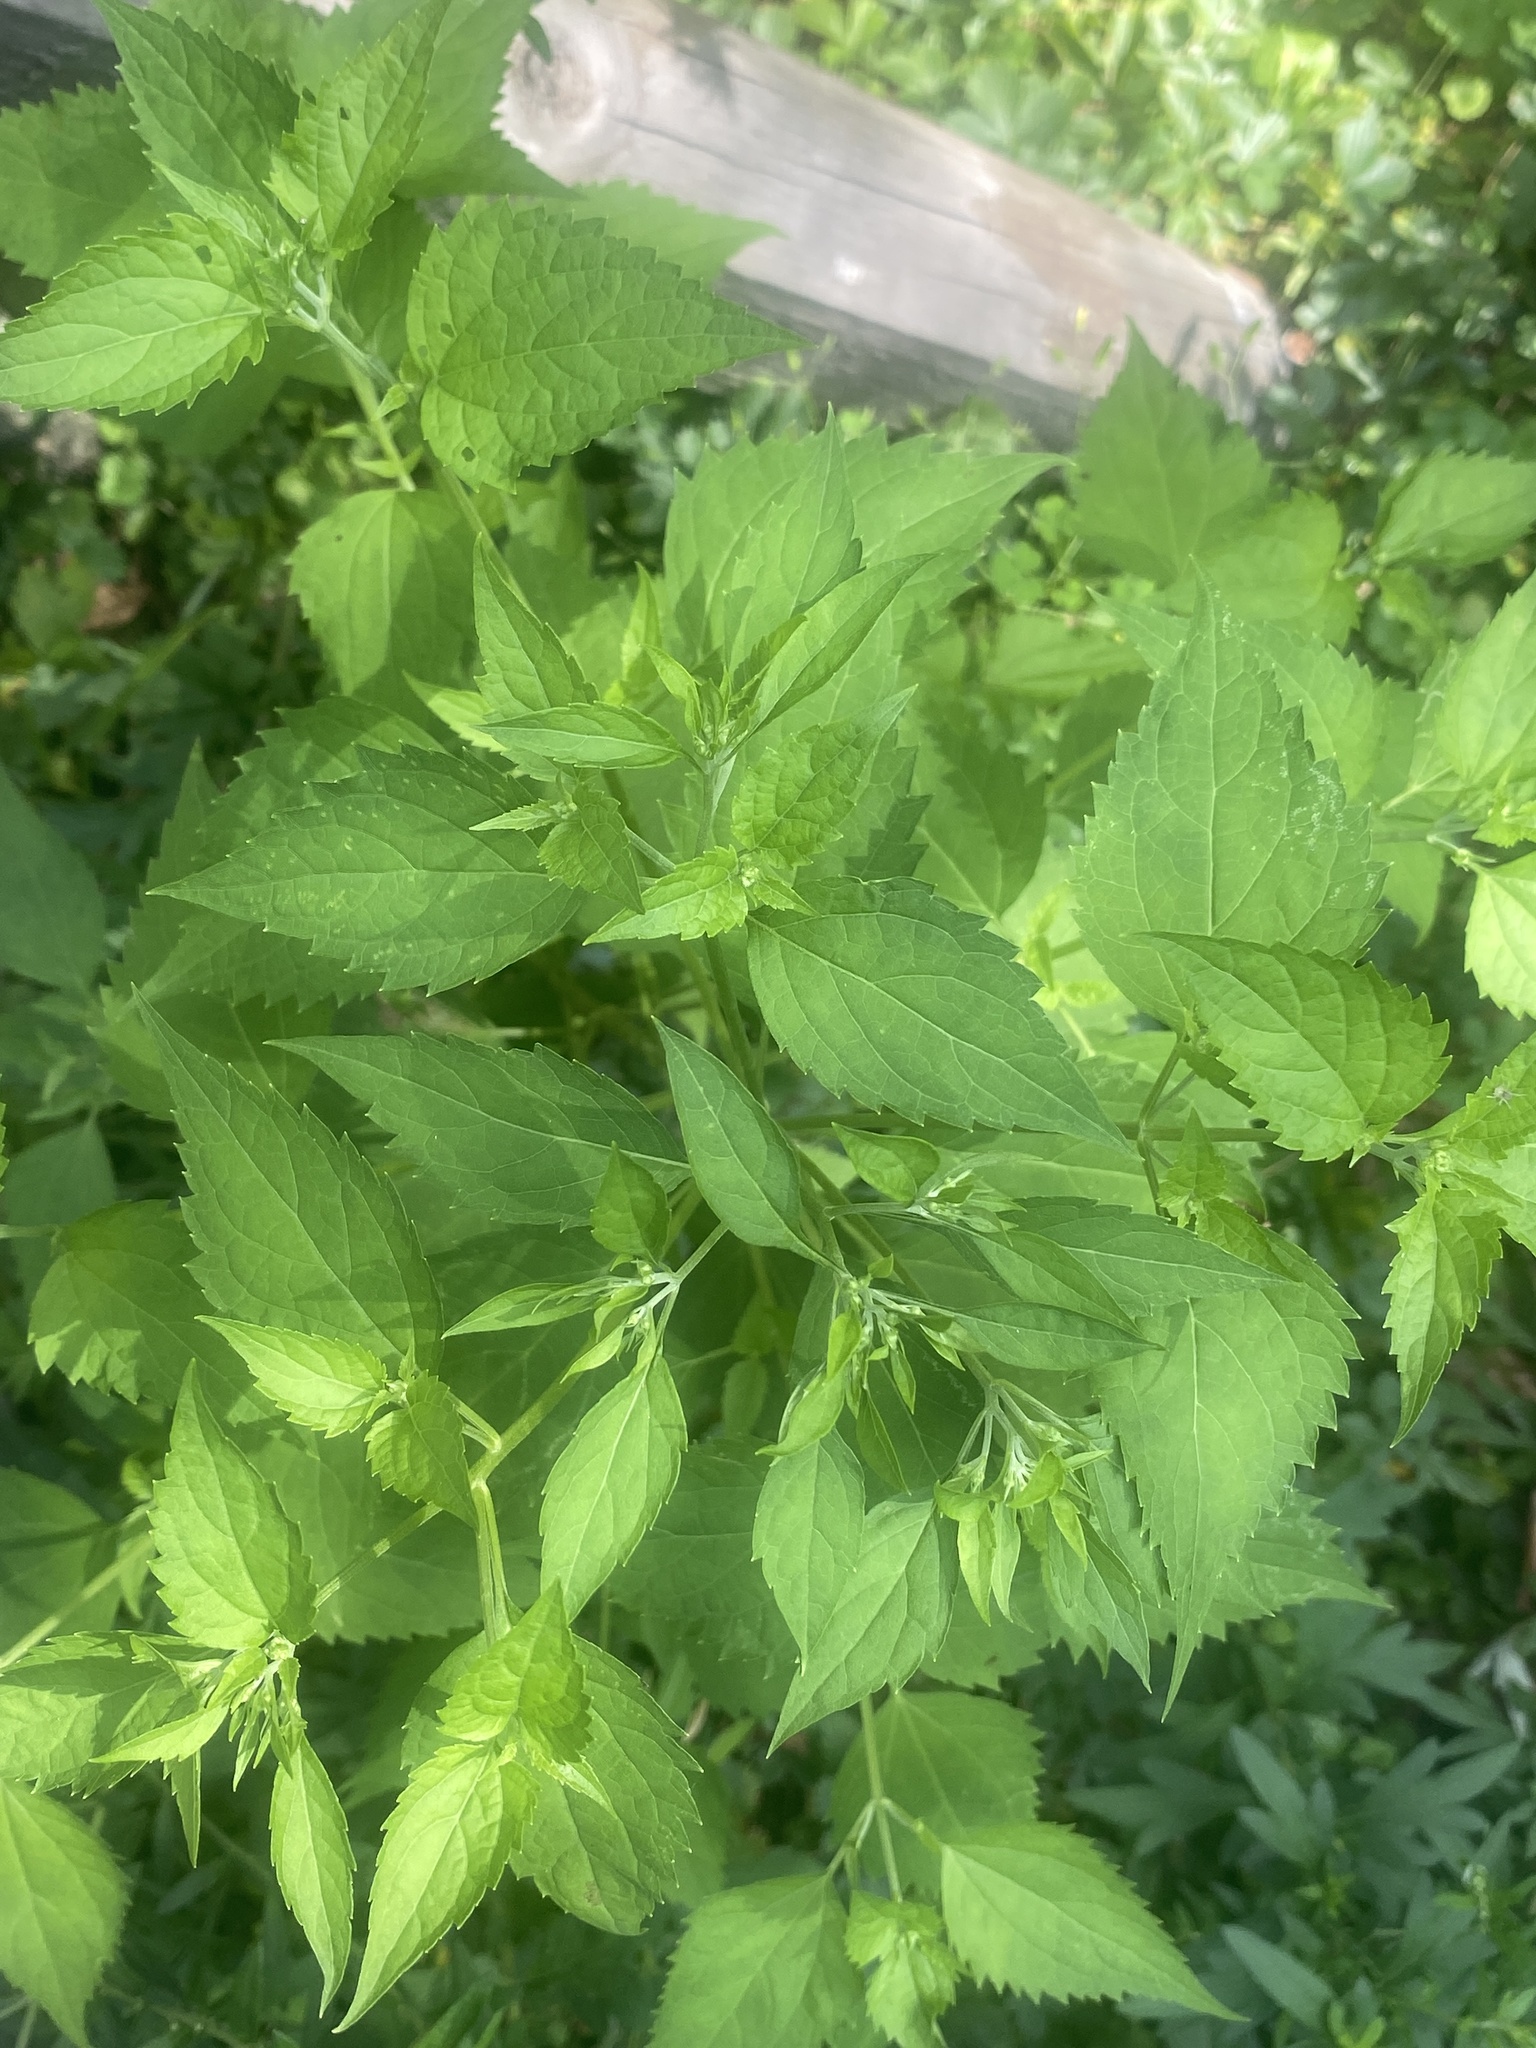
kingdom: Plantae
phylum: Tracheophyta
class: Magnoliopsida
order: Asterales
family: Asteraceae
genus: Ageratina
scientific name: Ageratina altissima
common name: White snakeroot
